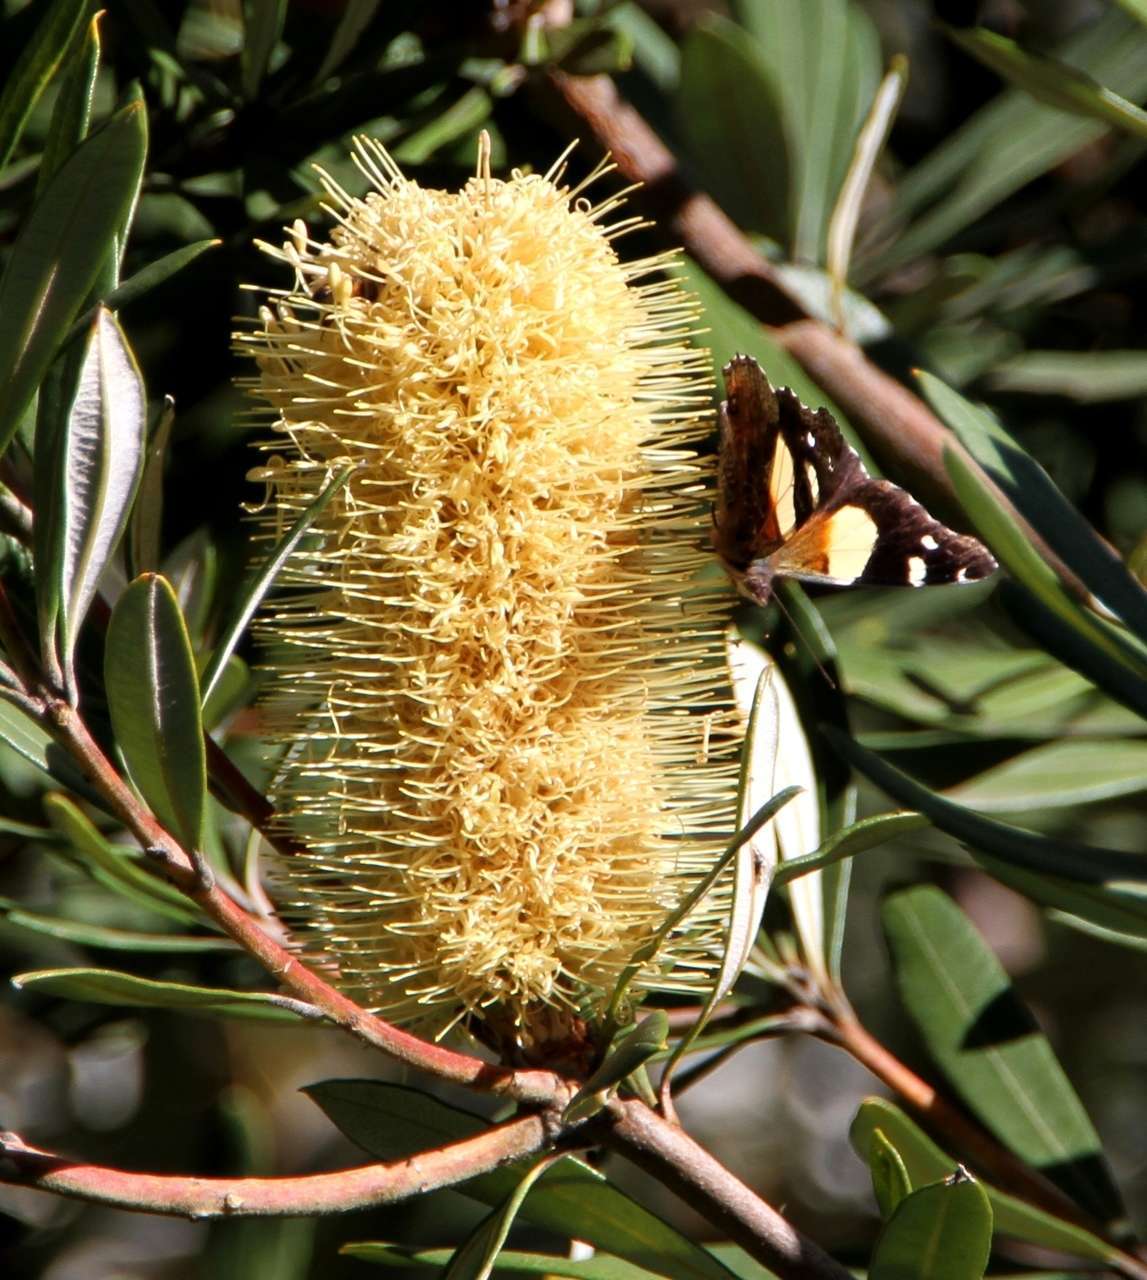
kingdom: Animalia
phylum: Arthropoda
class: Insecta
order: Lepidoptera
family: Nymphalidae
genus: Vanessa
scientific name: Vanessa itea
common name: Yellow admiral
